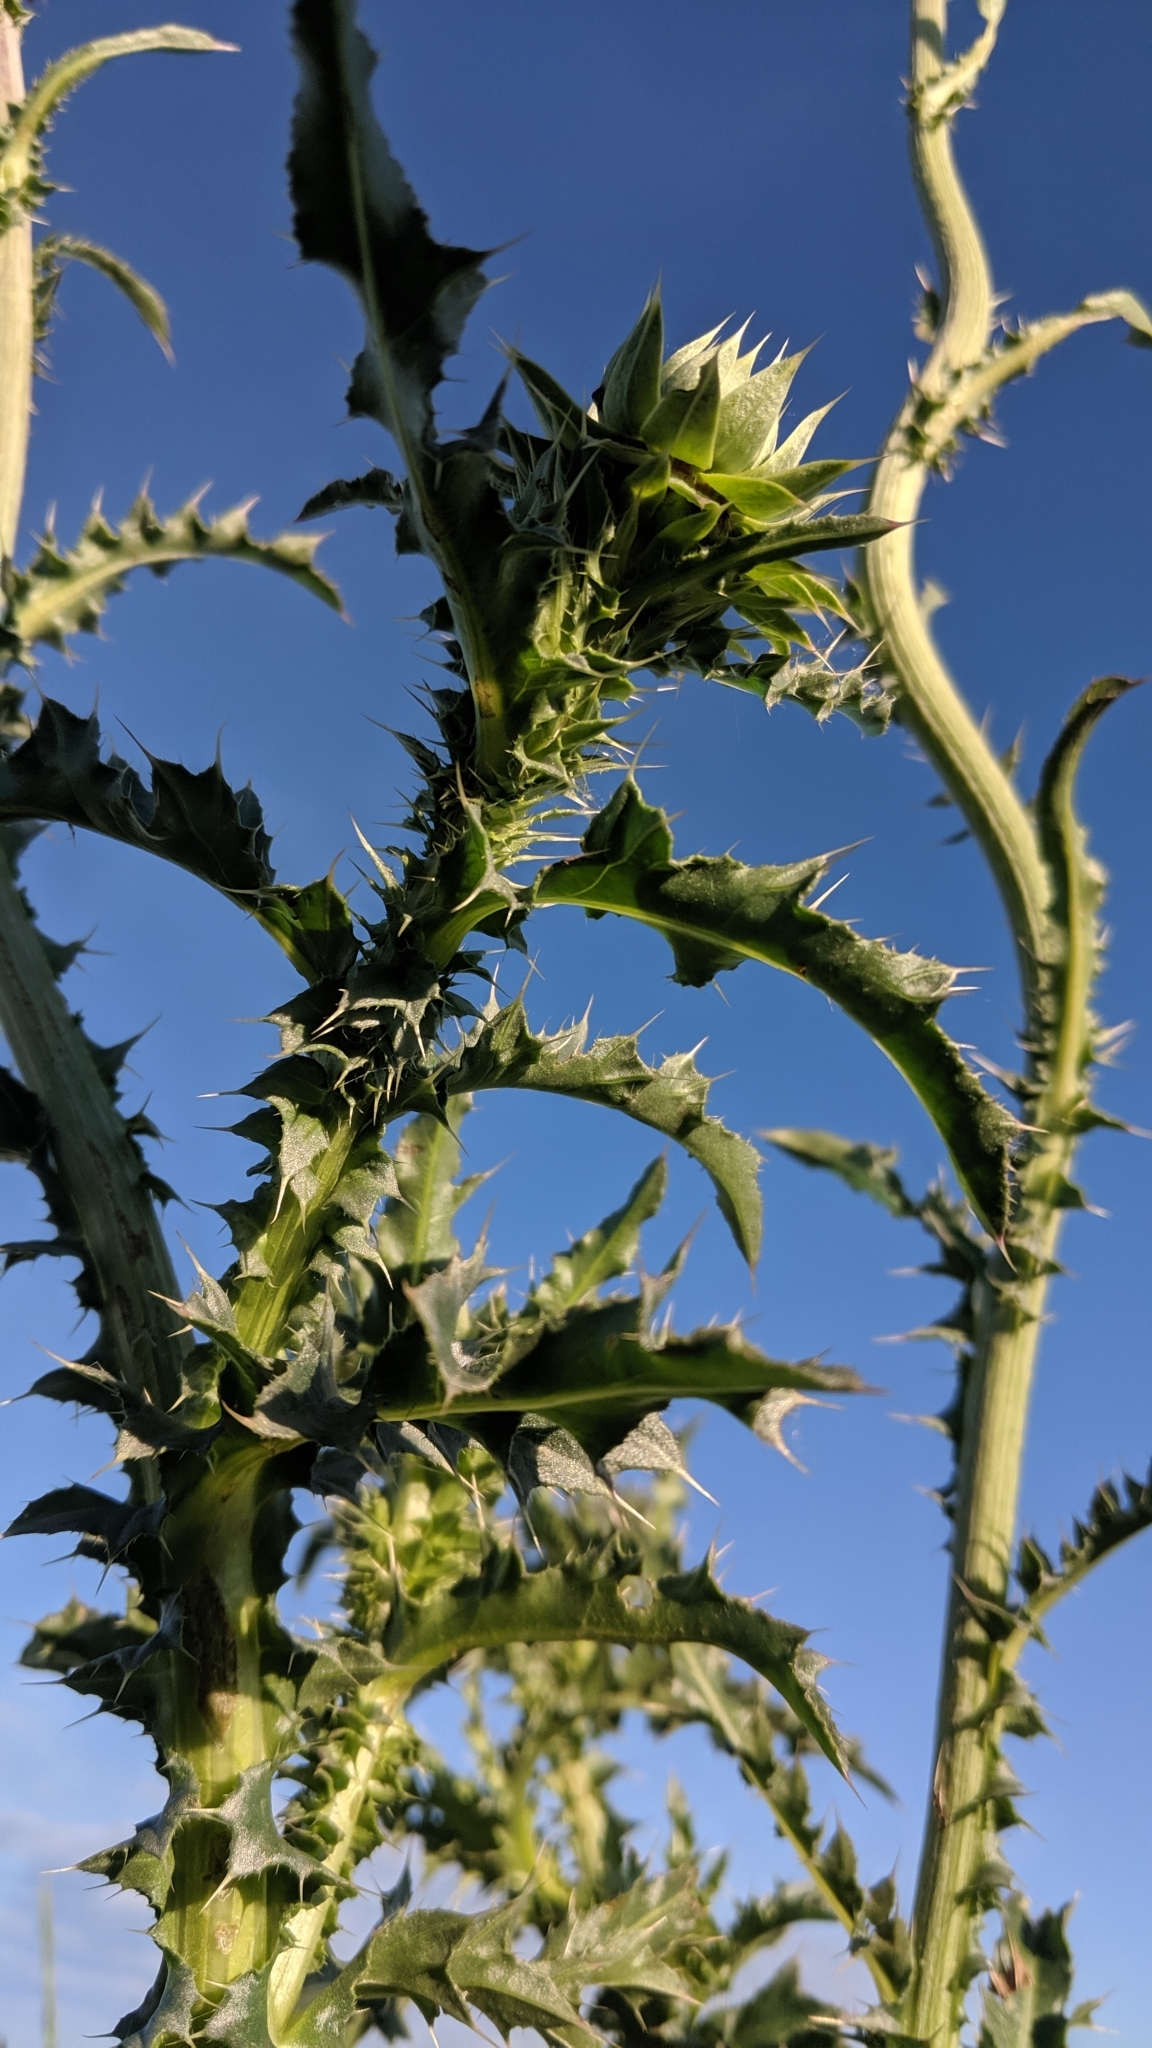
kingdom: Plantae
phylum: Tracheophyta
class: Magnoliopsida
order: Asterales
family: Asteraceae
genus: Carduus
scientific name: Carduus nutans
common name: Musk thistle
